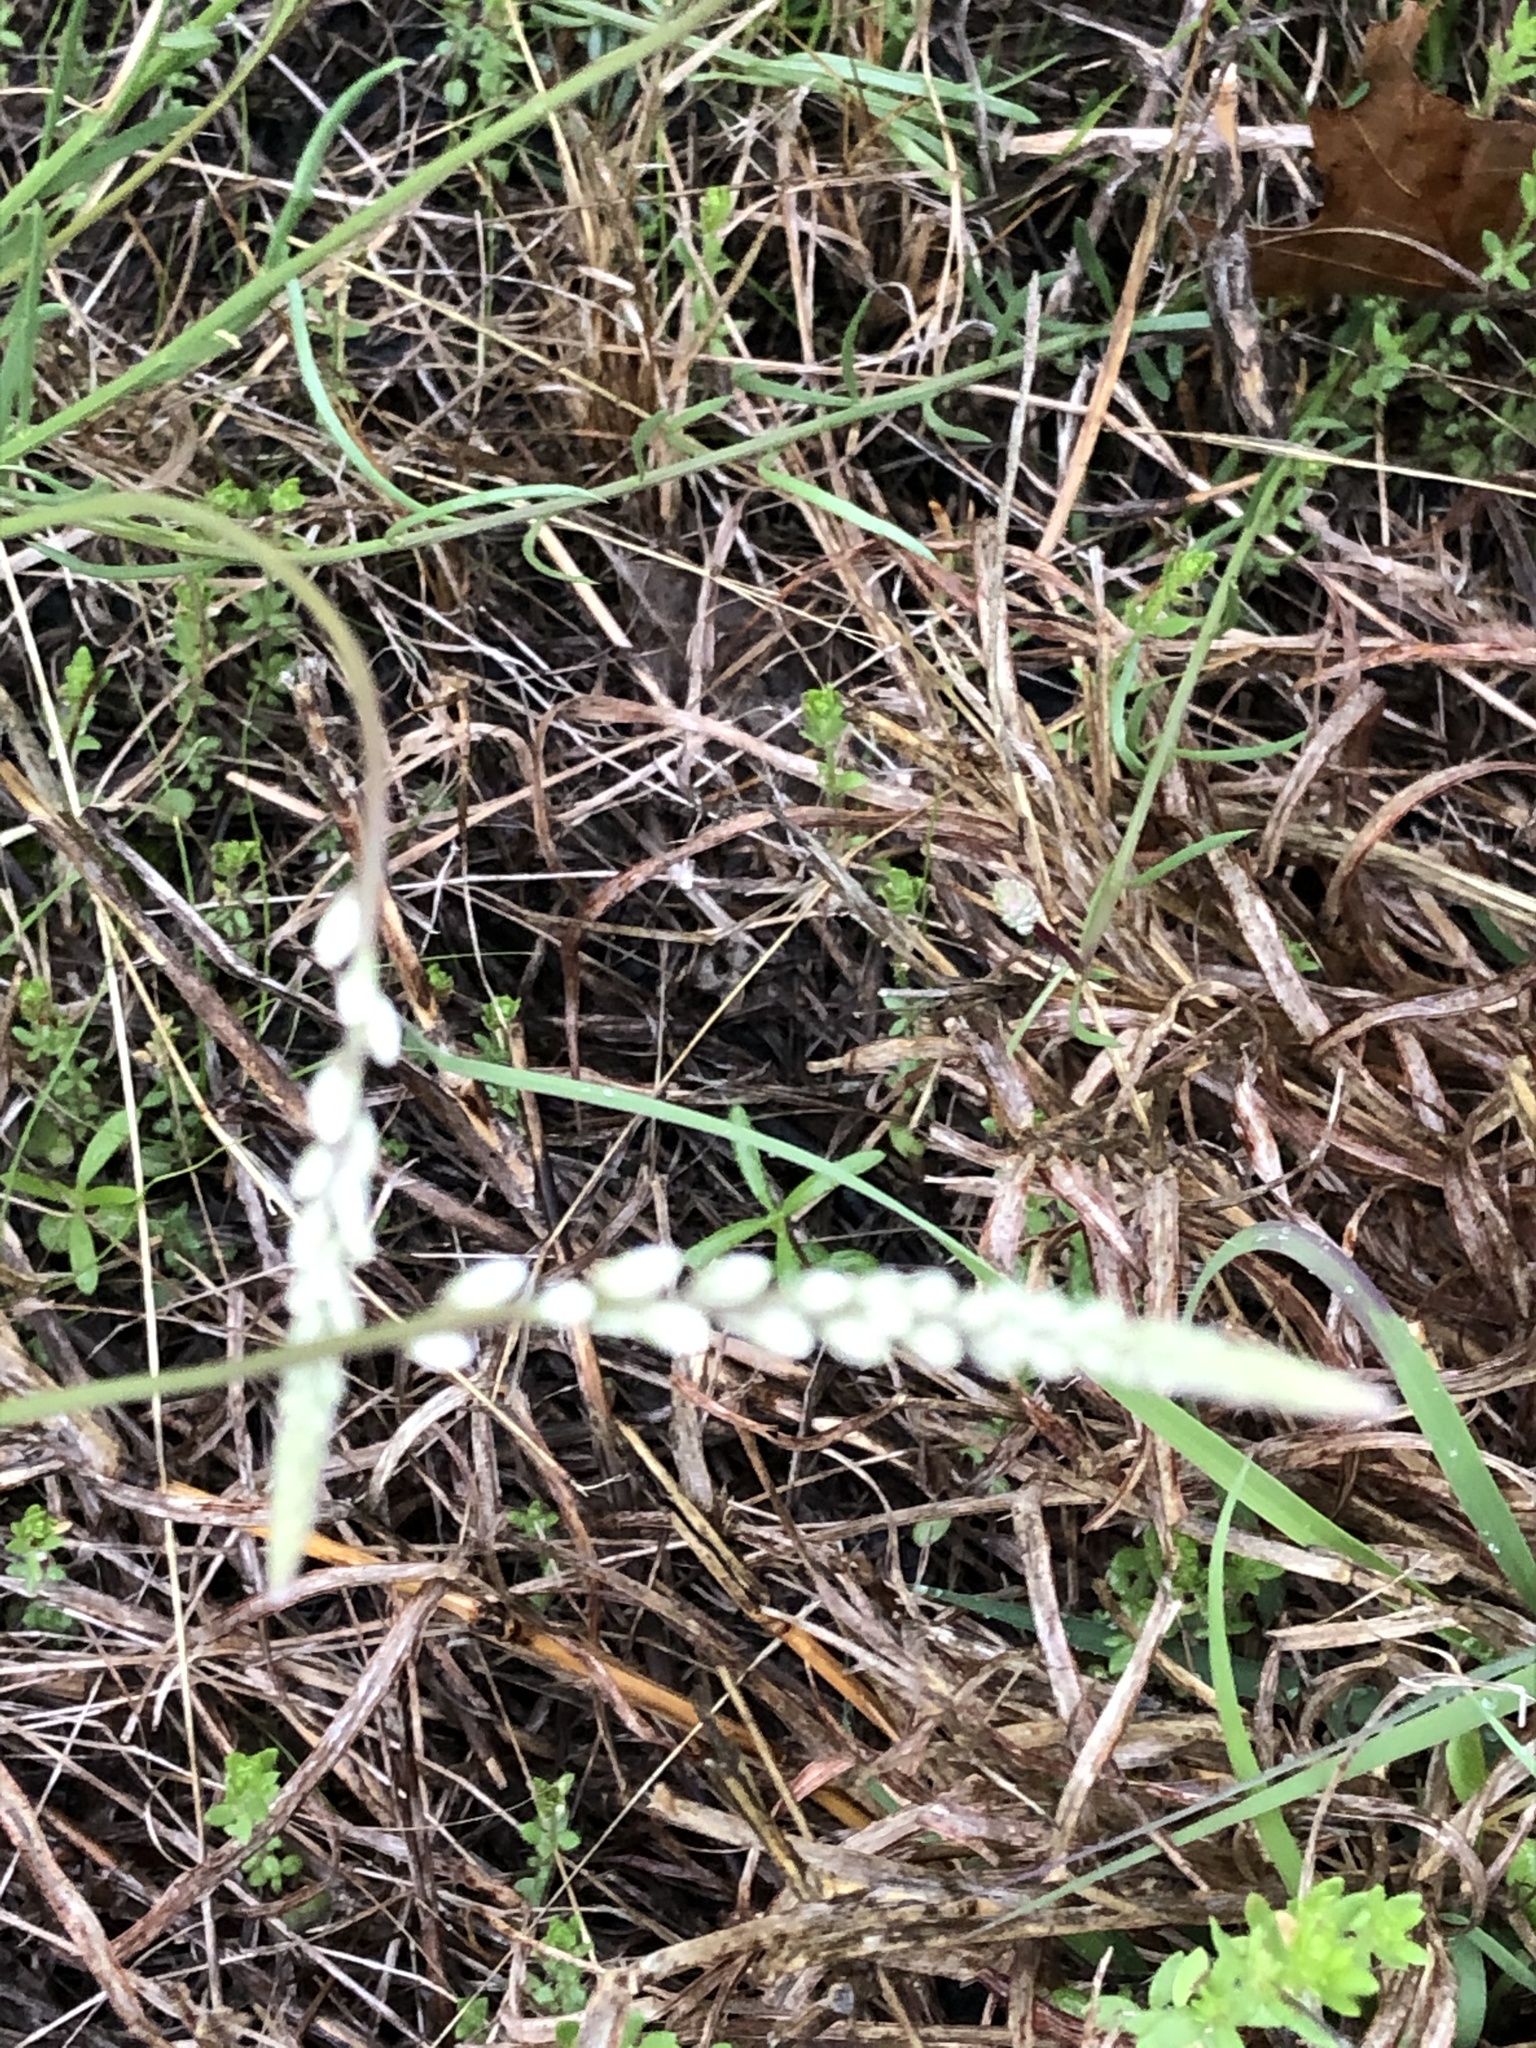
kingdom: Plantae
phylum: Tracheophyta
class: Magnoliopsida
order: Fabales
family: Polygalaceae
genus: Polygala
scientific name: Polygala alba
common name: White milkwort
